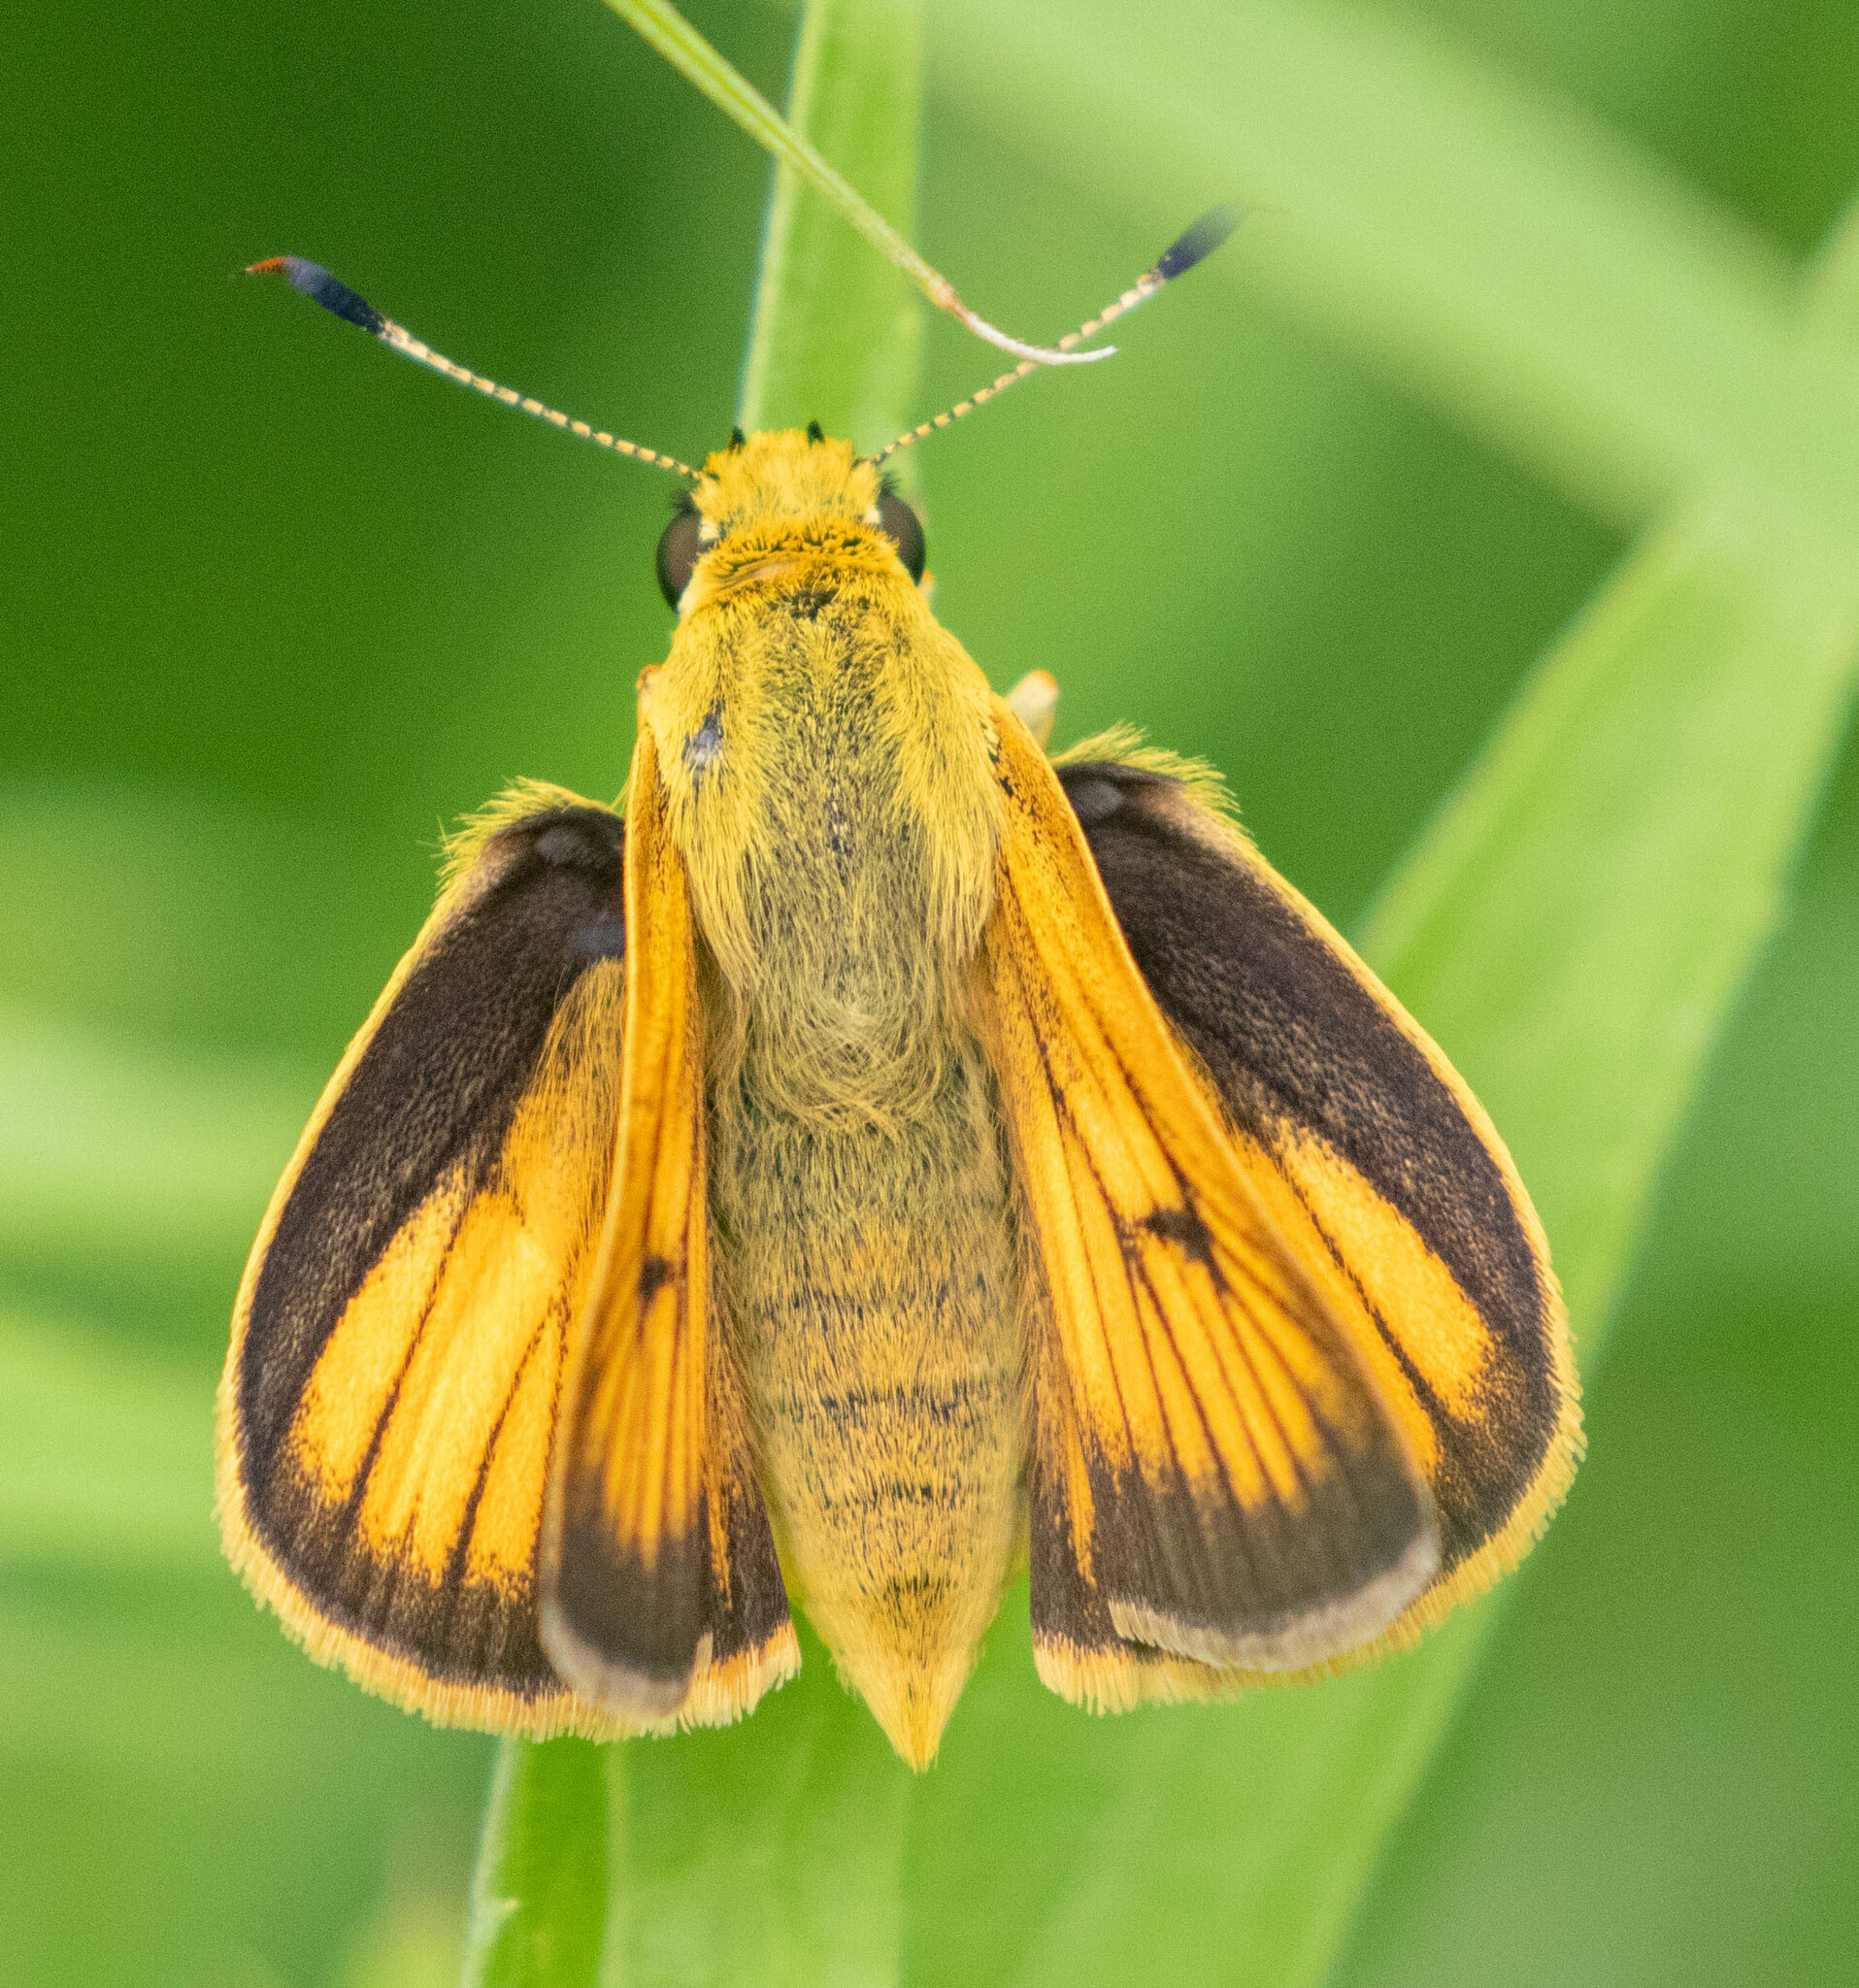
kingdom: Animalia
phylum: Arthropoda
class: Insecta
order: Lepidoptera
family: Hesperiidae
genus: Atrytone
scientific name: Atrytone delaware
